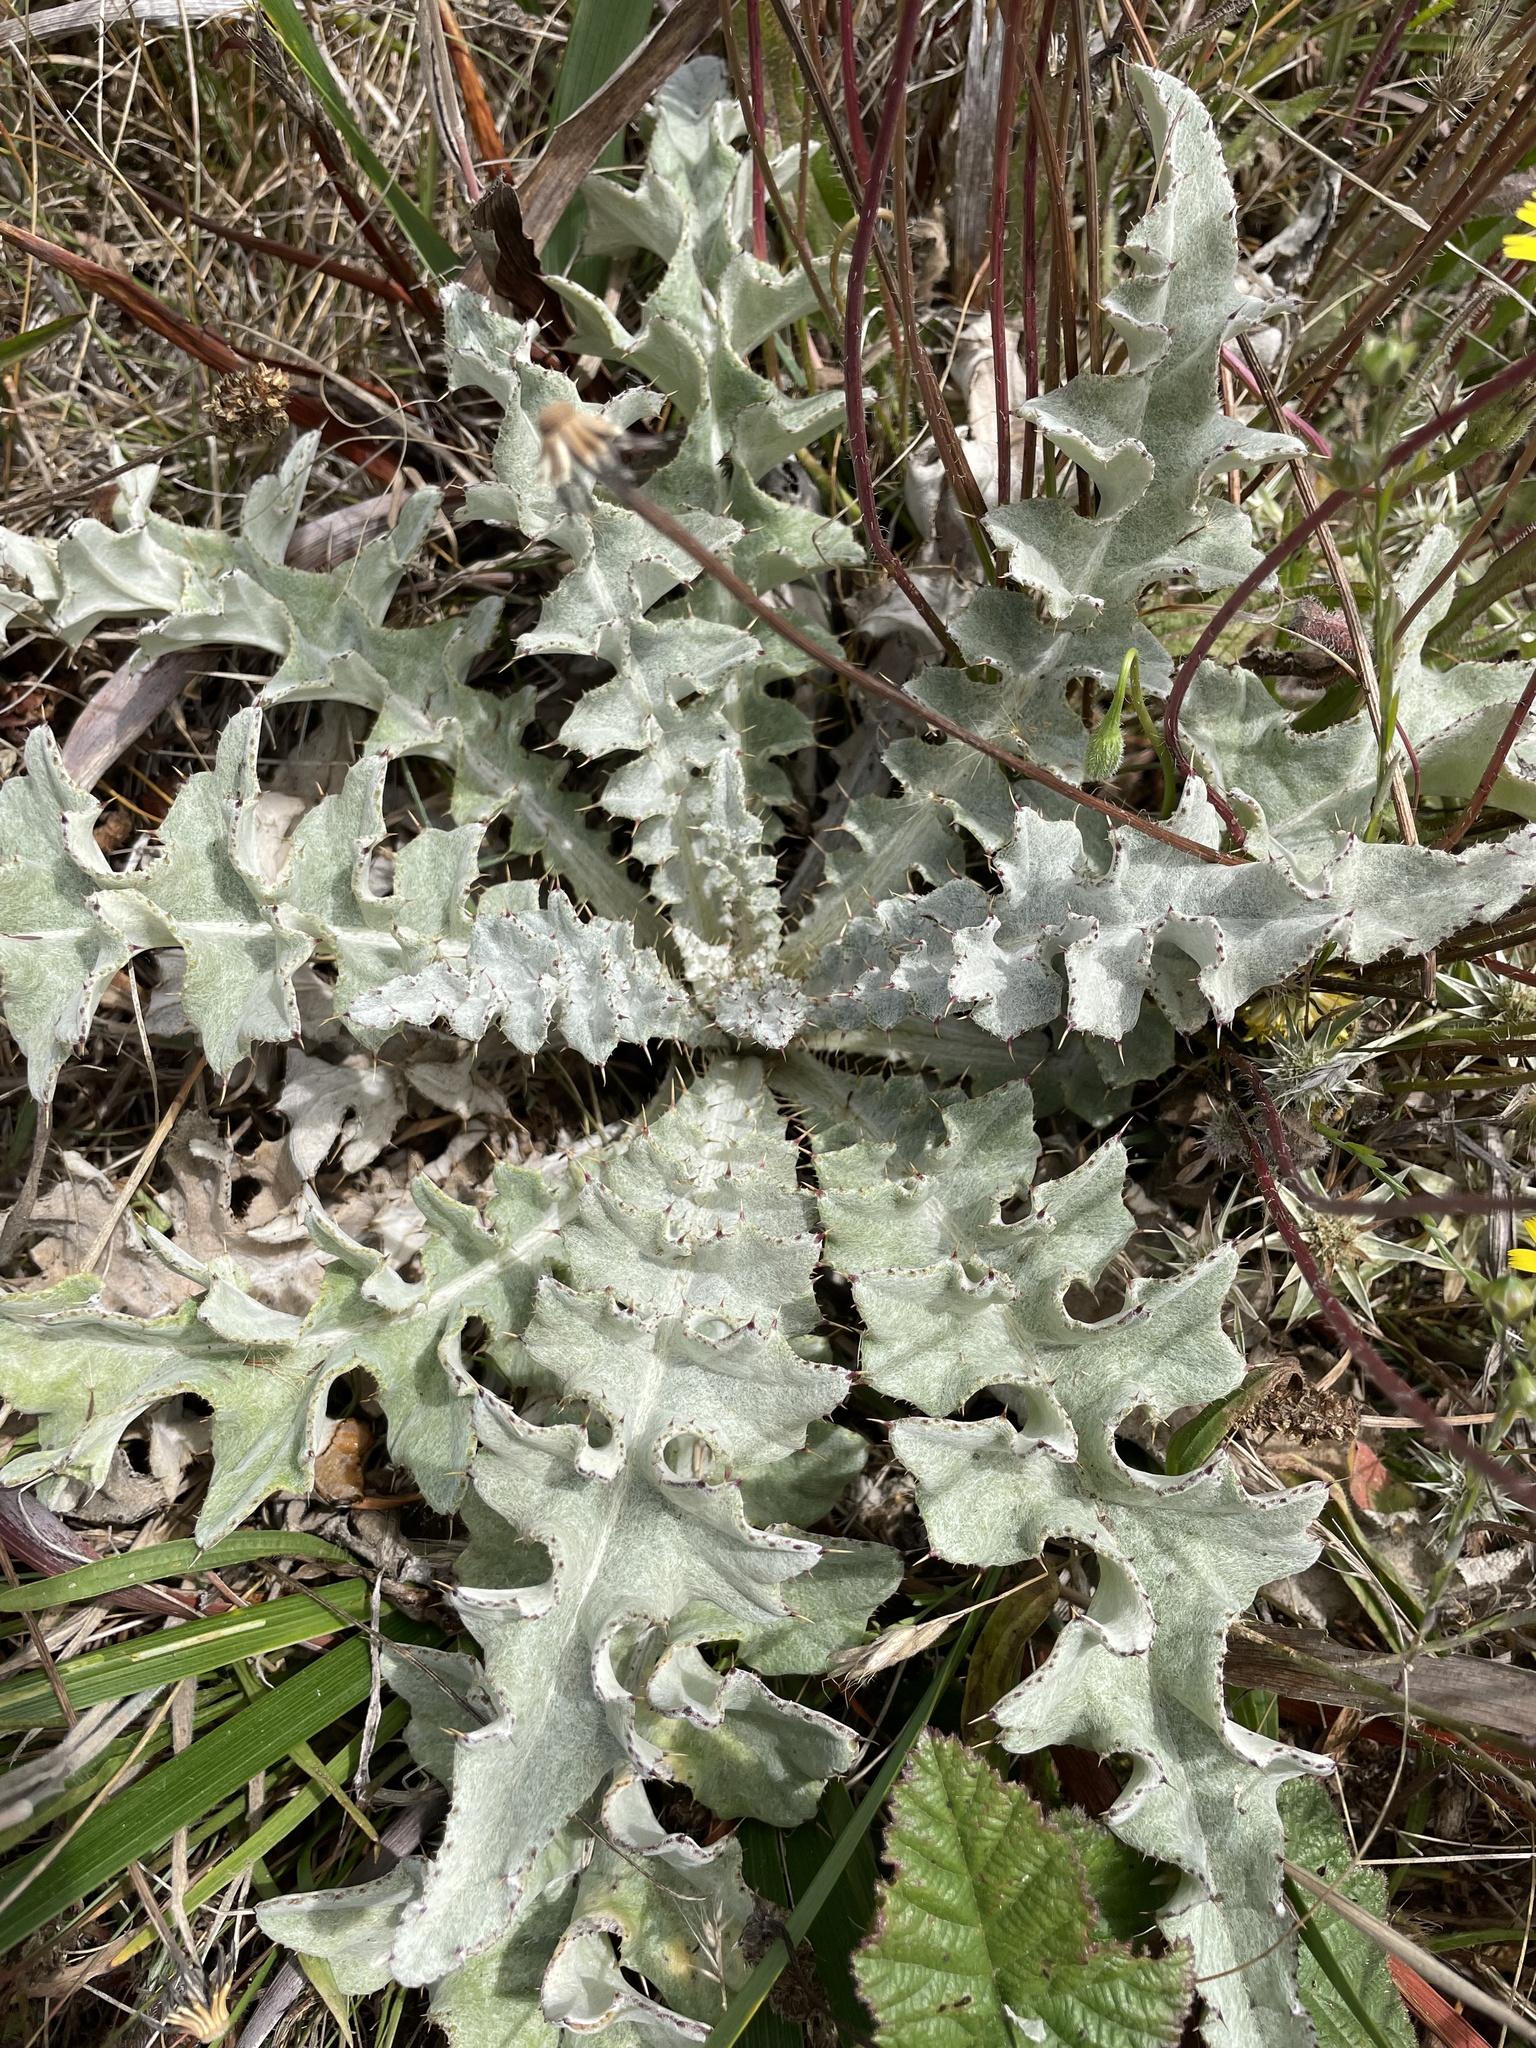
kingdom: Plantae
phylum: Tracheophyta
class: Magnoliopsida
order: Asterales
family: Asteraceae
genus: Cirsium
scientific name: Cirsium douglasii
